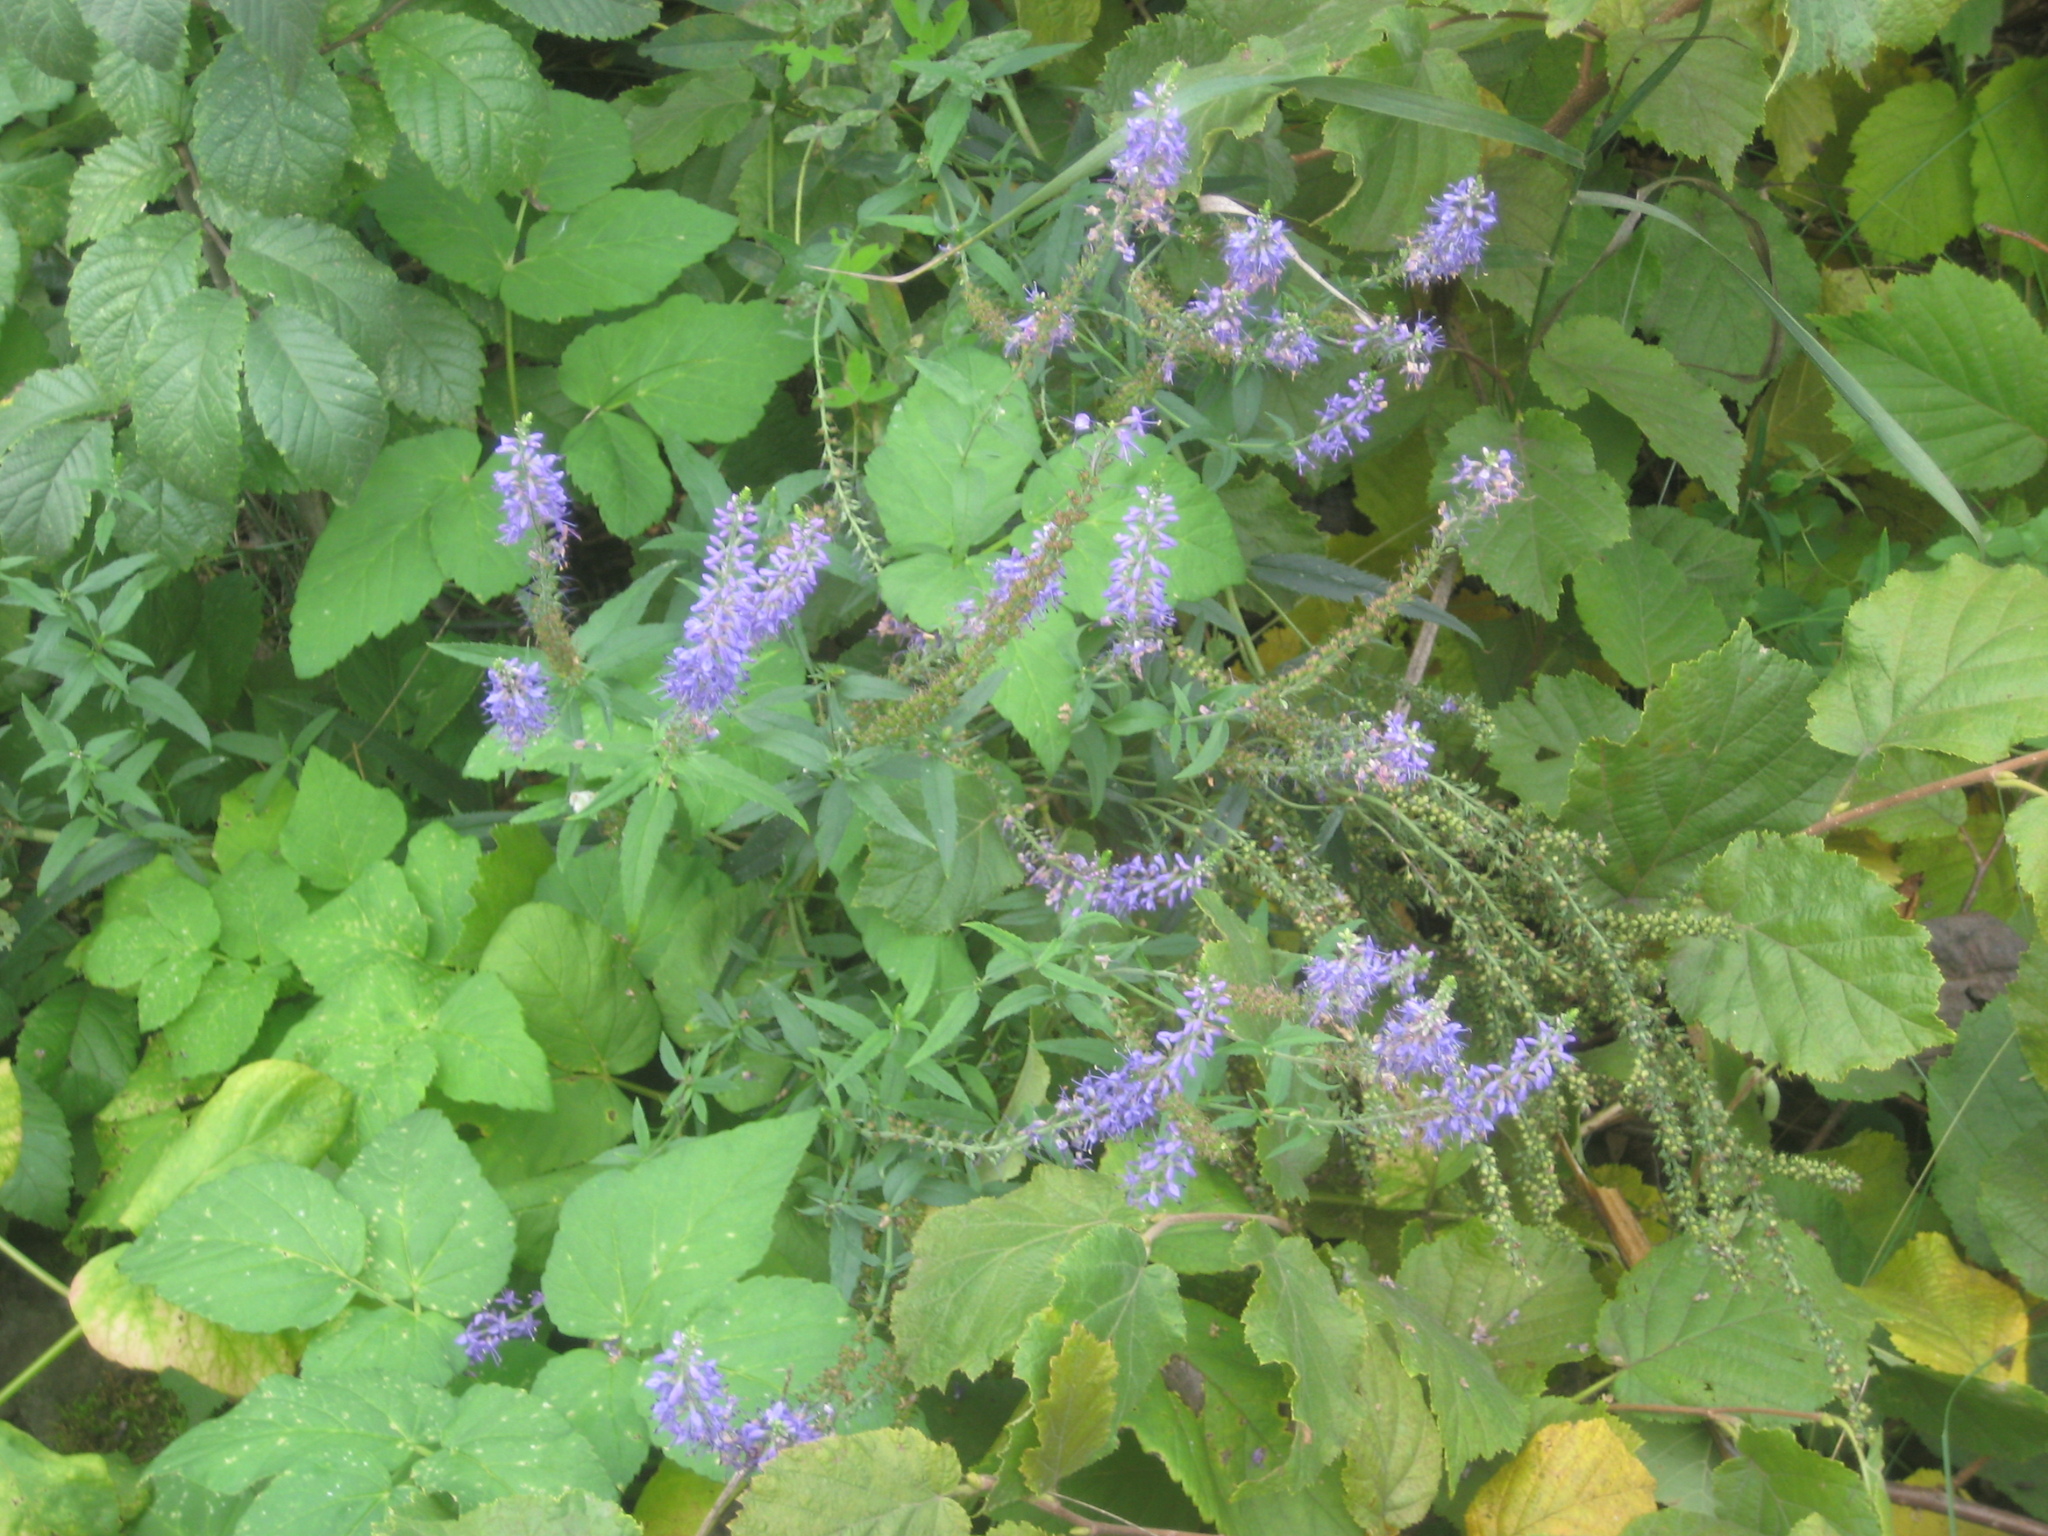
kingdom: Plantae
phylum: Tracheophyta
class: Magnoliopsida
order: Lamiales
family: Plantaginaceae
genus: Veronica
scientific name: Veronica longifolia
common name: Garden speedwell
